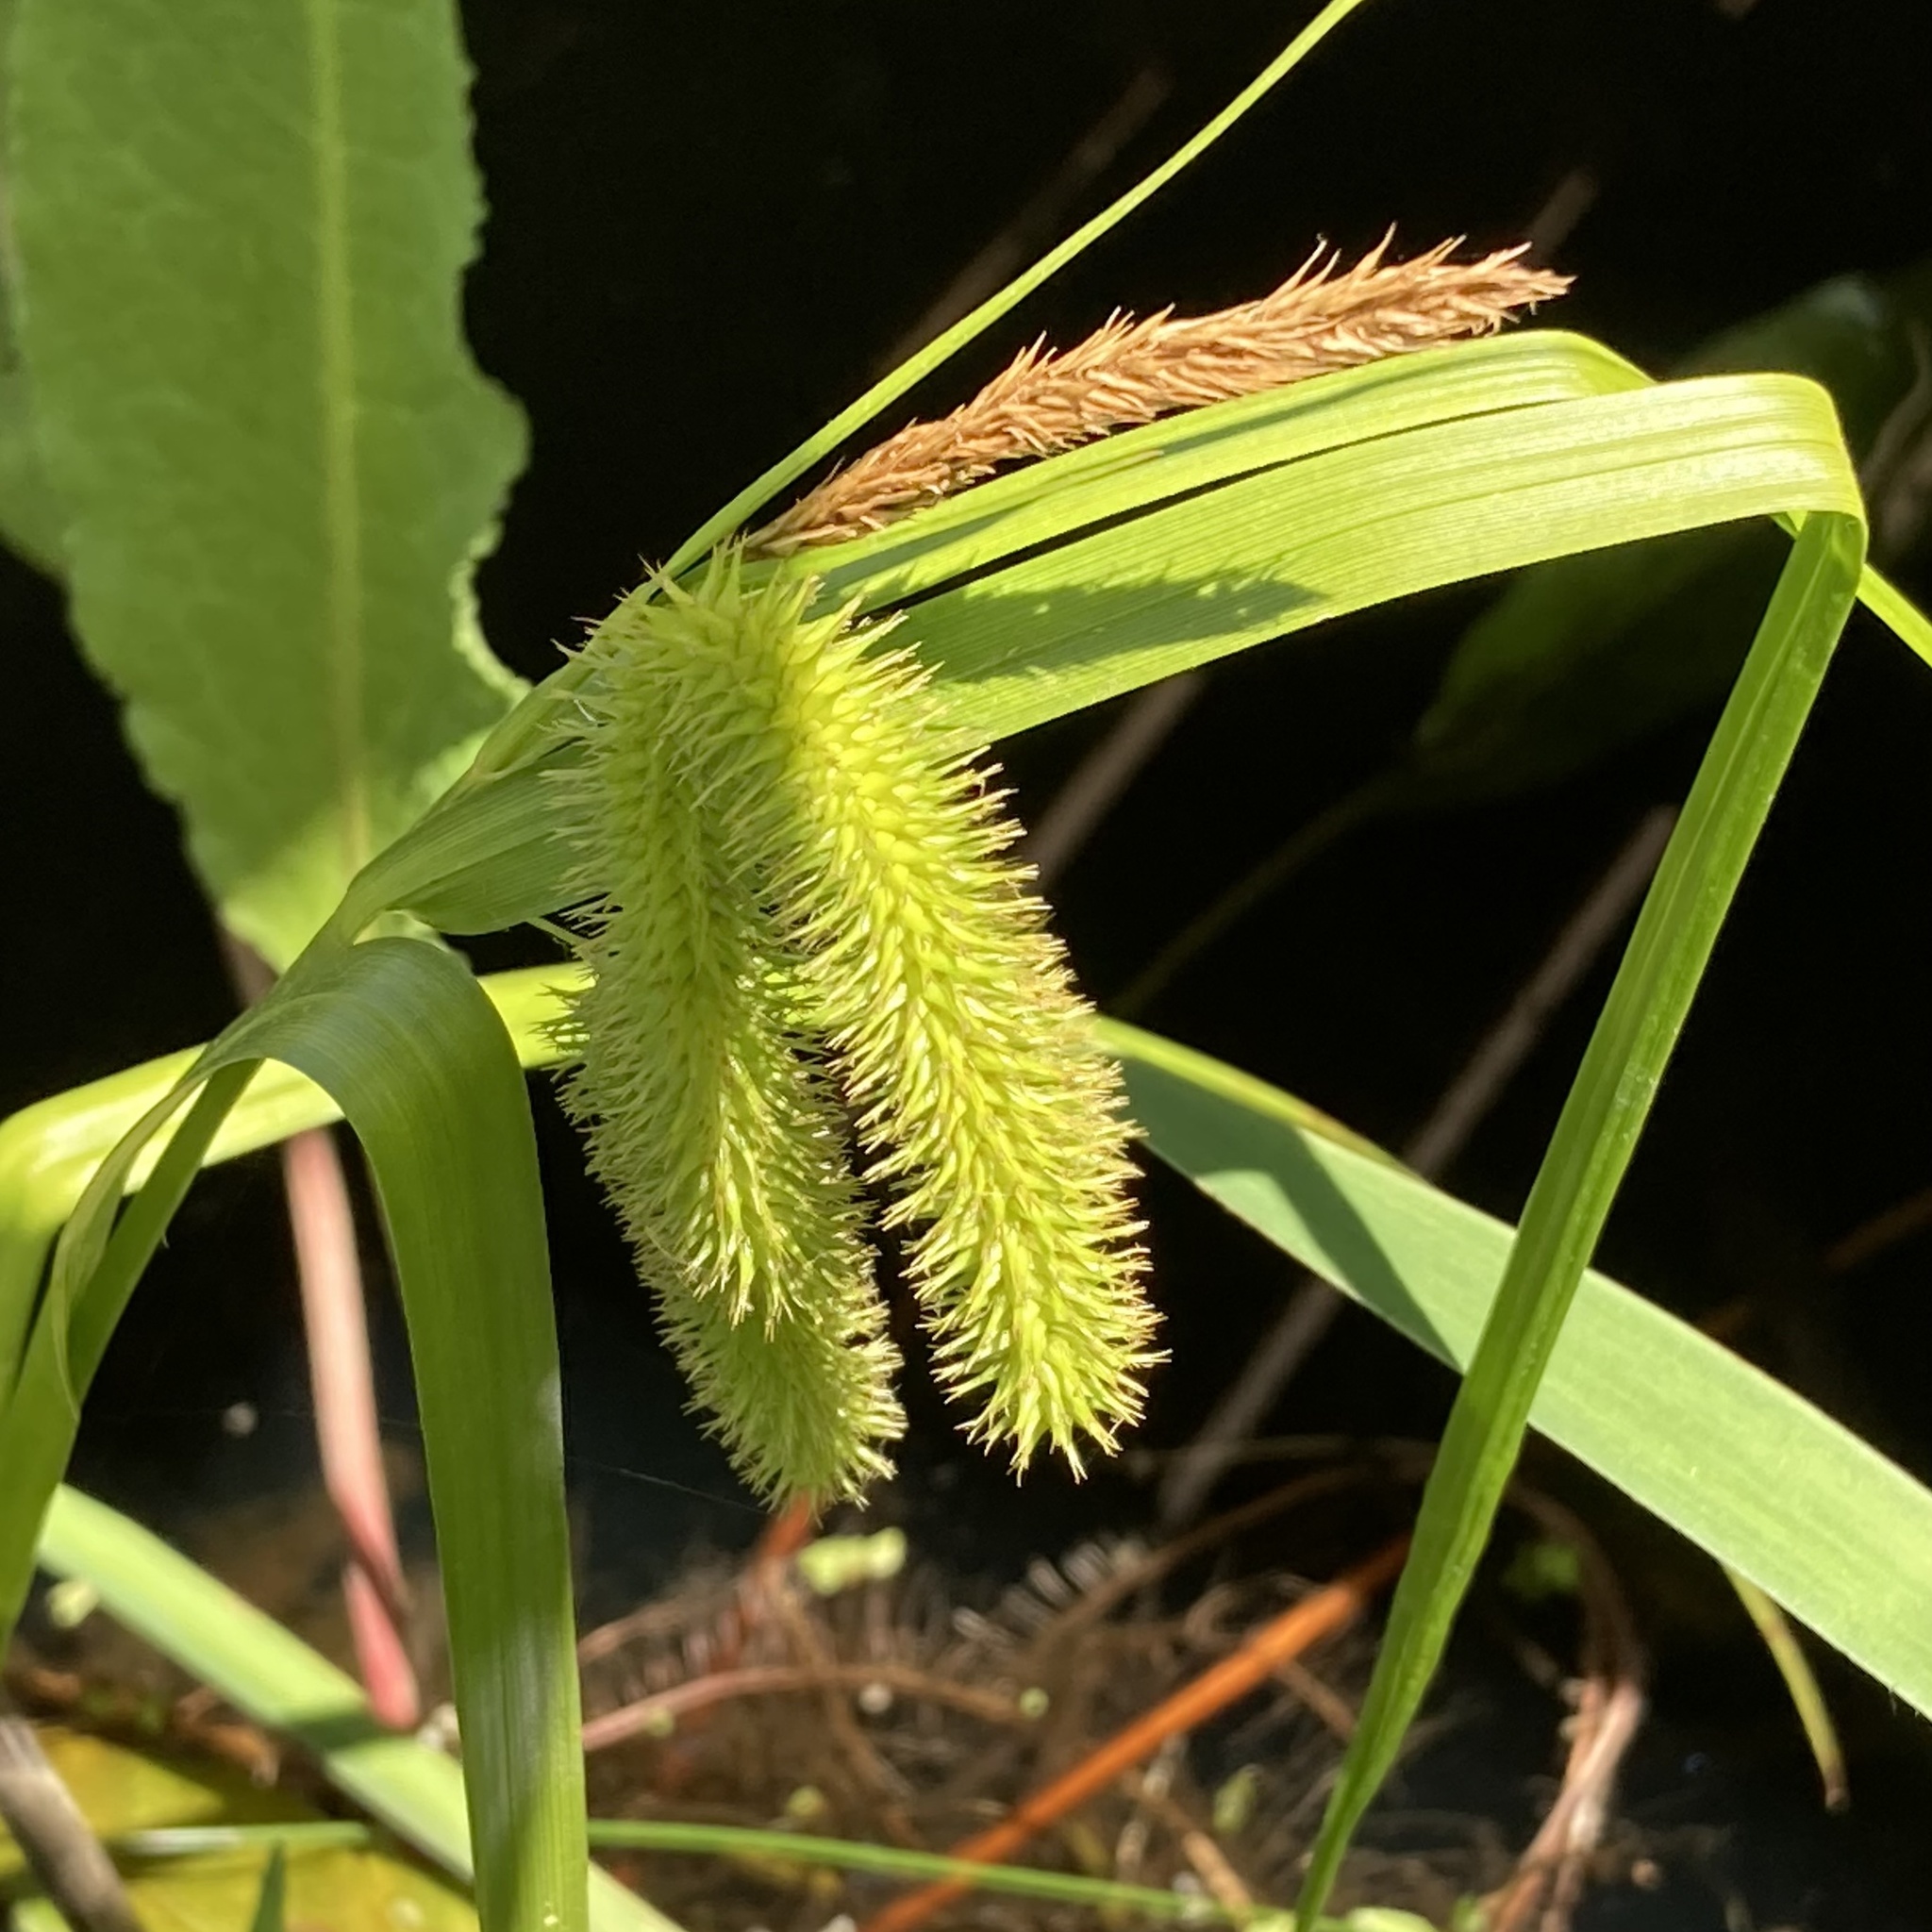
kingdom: Plantae
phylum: Tracheophyta
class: Liliopsida
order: Poales
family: Cyperaceae
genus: Carex
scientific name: Carex comosa
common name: Bristly sedge
